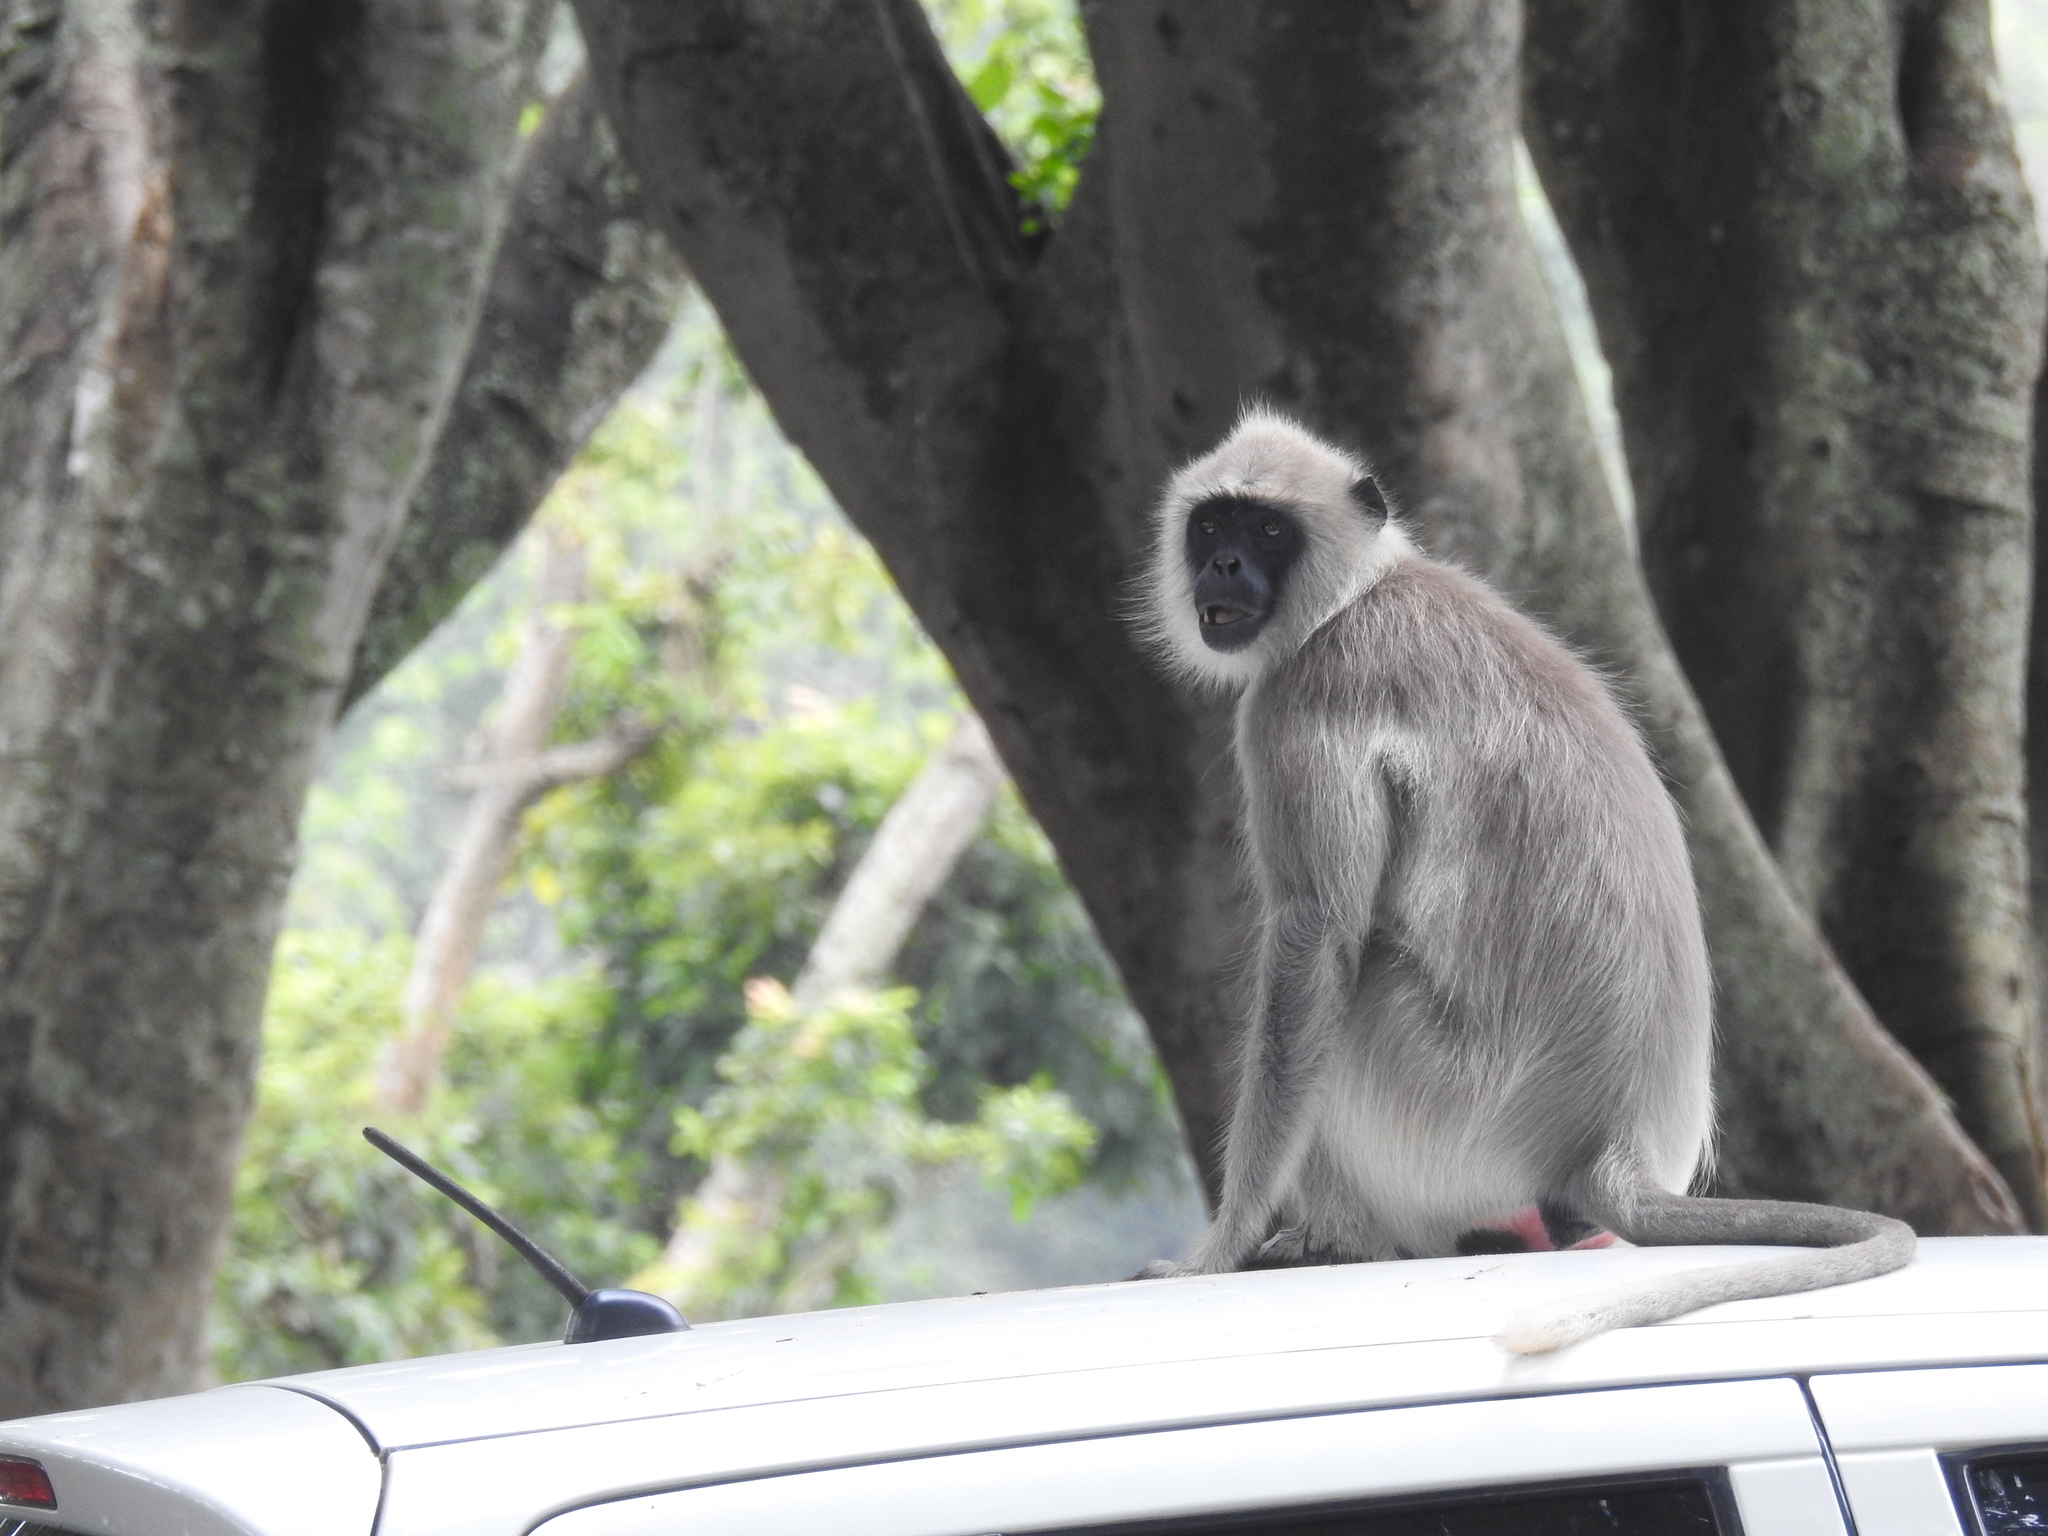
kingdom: Animalia
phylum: Chordata
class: Mammalia
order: Primates
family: Cercopithecidae
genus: Semnopithecus
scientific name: Semnopithecus priam
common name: Tufted gray langur
